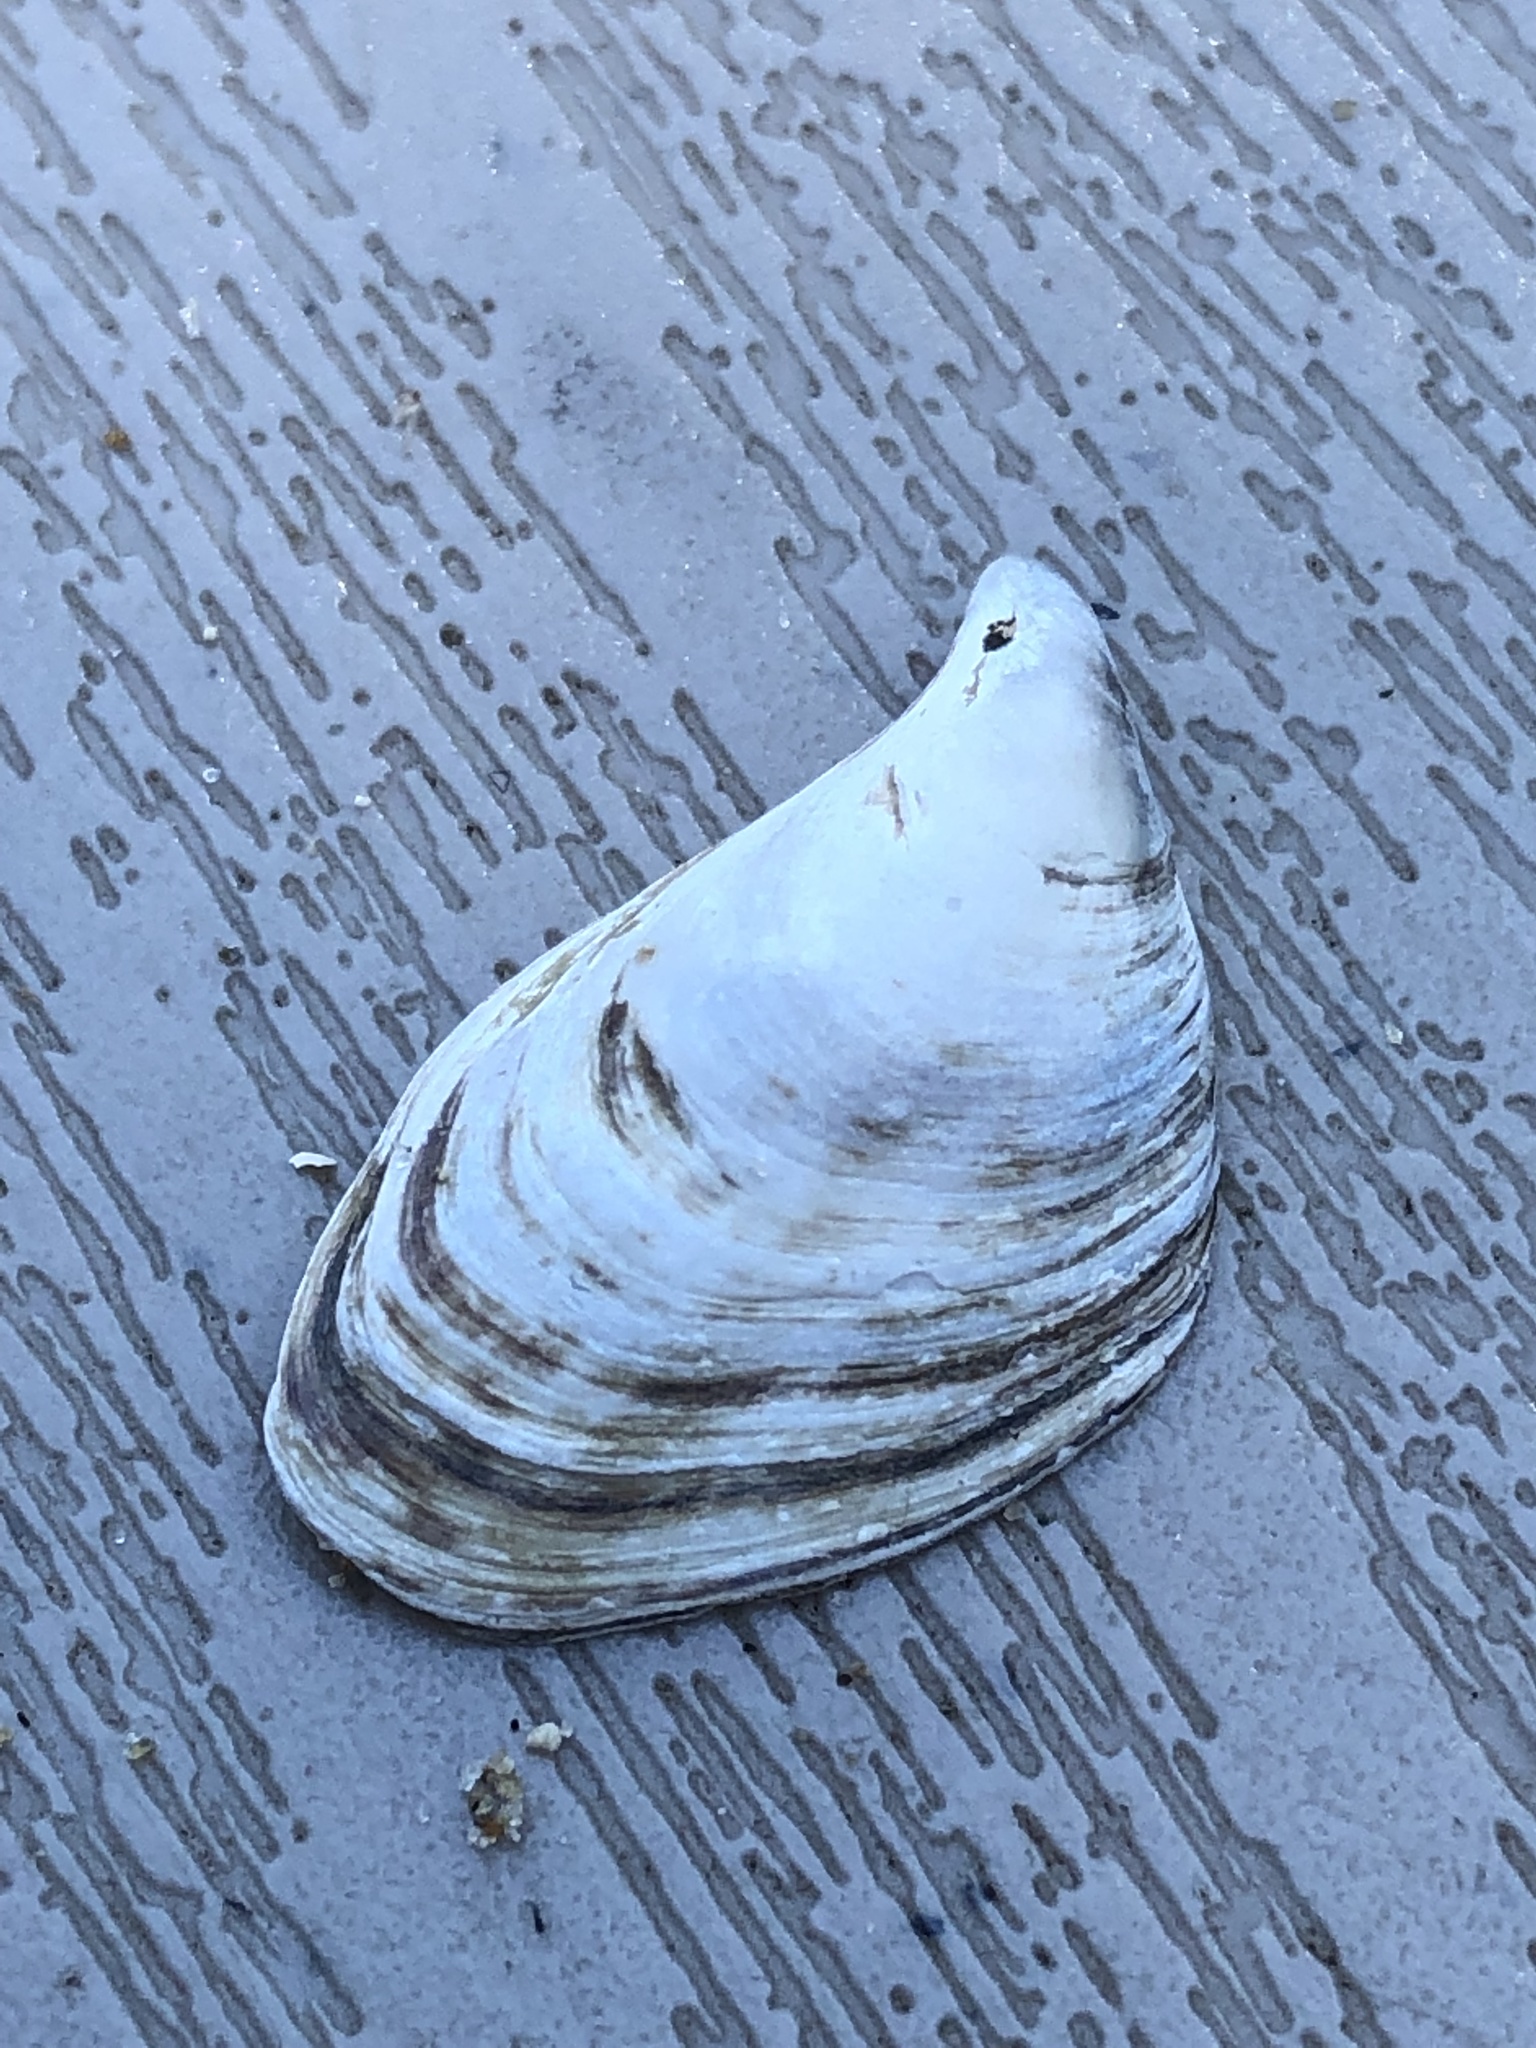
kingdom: Animalia
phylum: Mollusca
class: Bivalvia
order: Myida
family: Dreissenidae
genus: Dreissena
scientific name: Dreissena bugensis
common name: Quagga mussel
